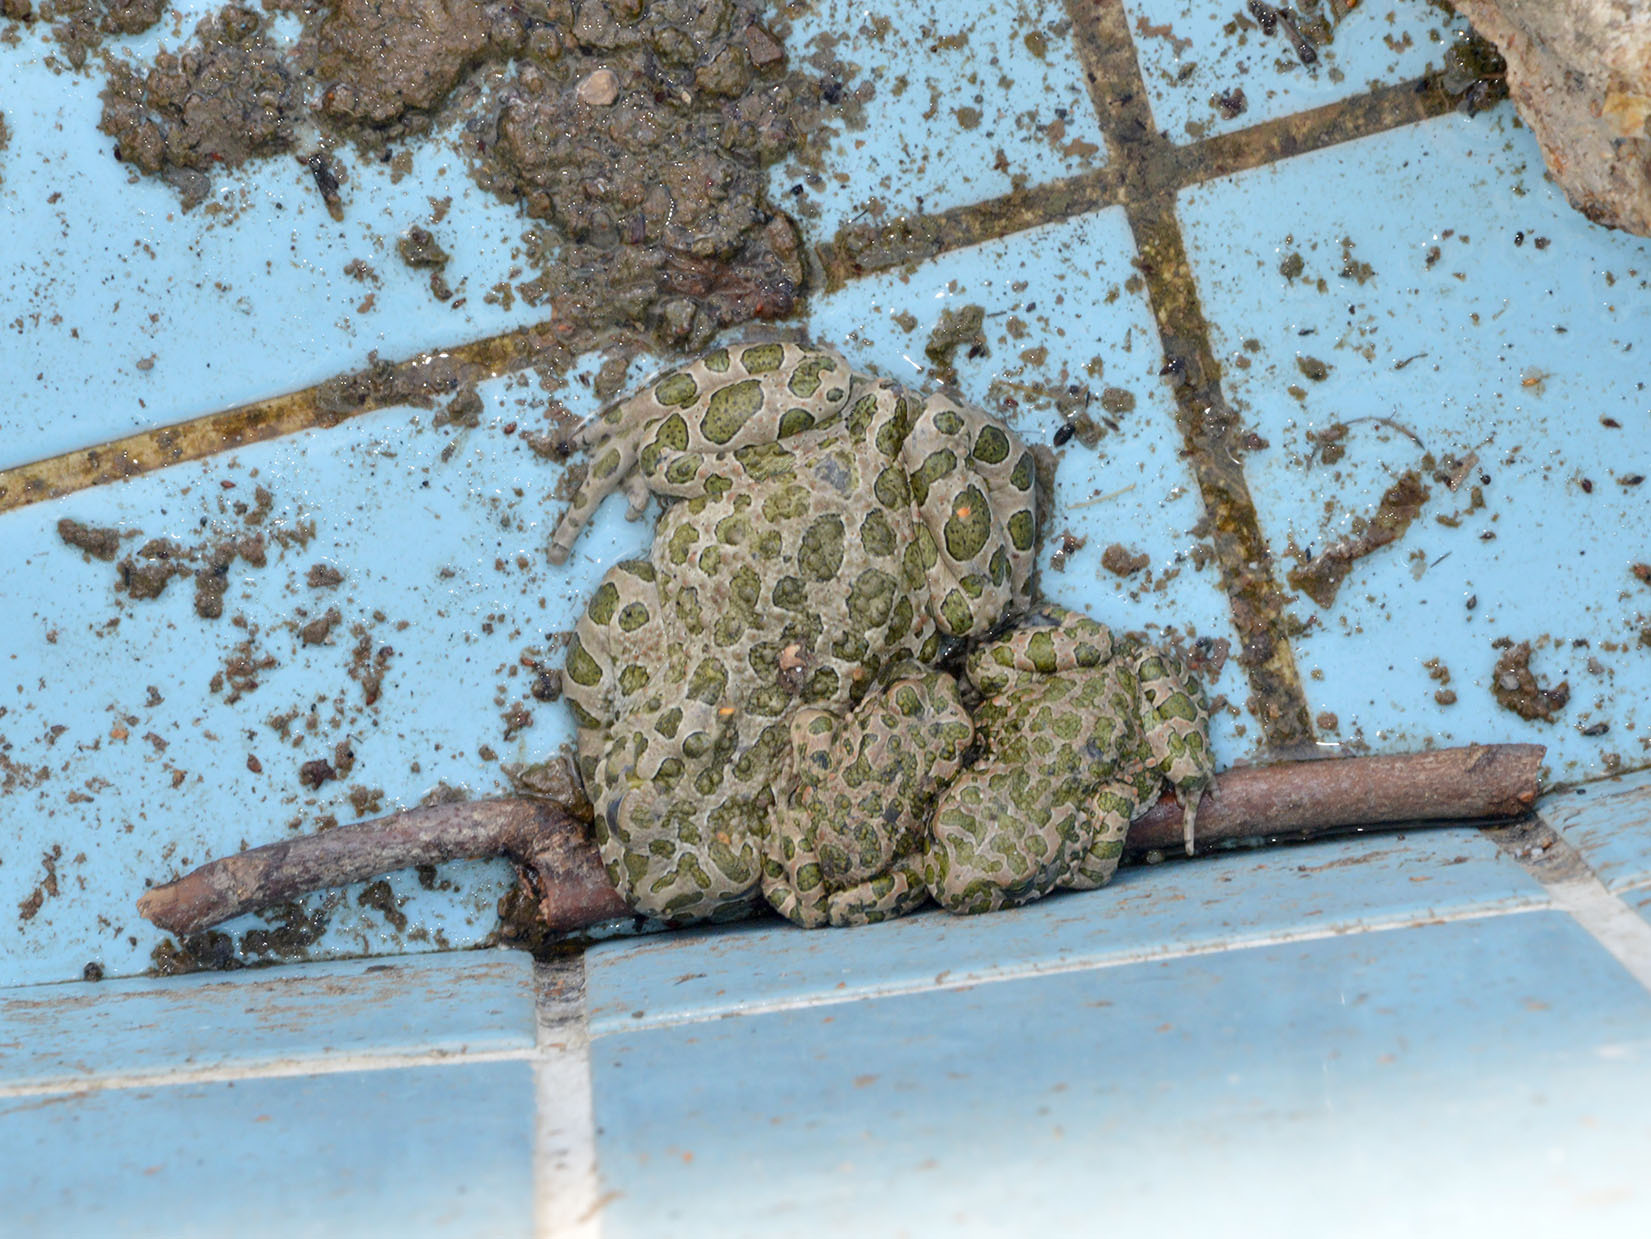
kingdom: Animalia
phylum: Chordata
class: Amphibia
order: Anura
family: Bufonidae
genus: Bufotes
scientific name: Bufotes viridis
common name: European green toad
